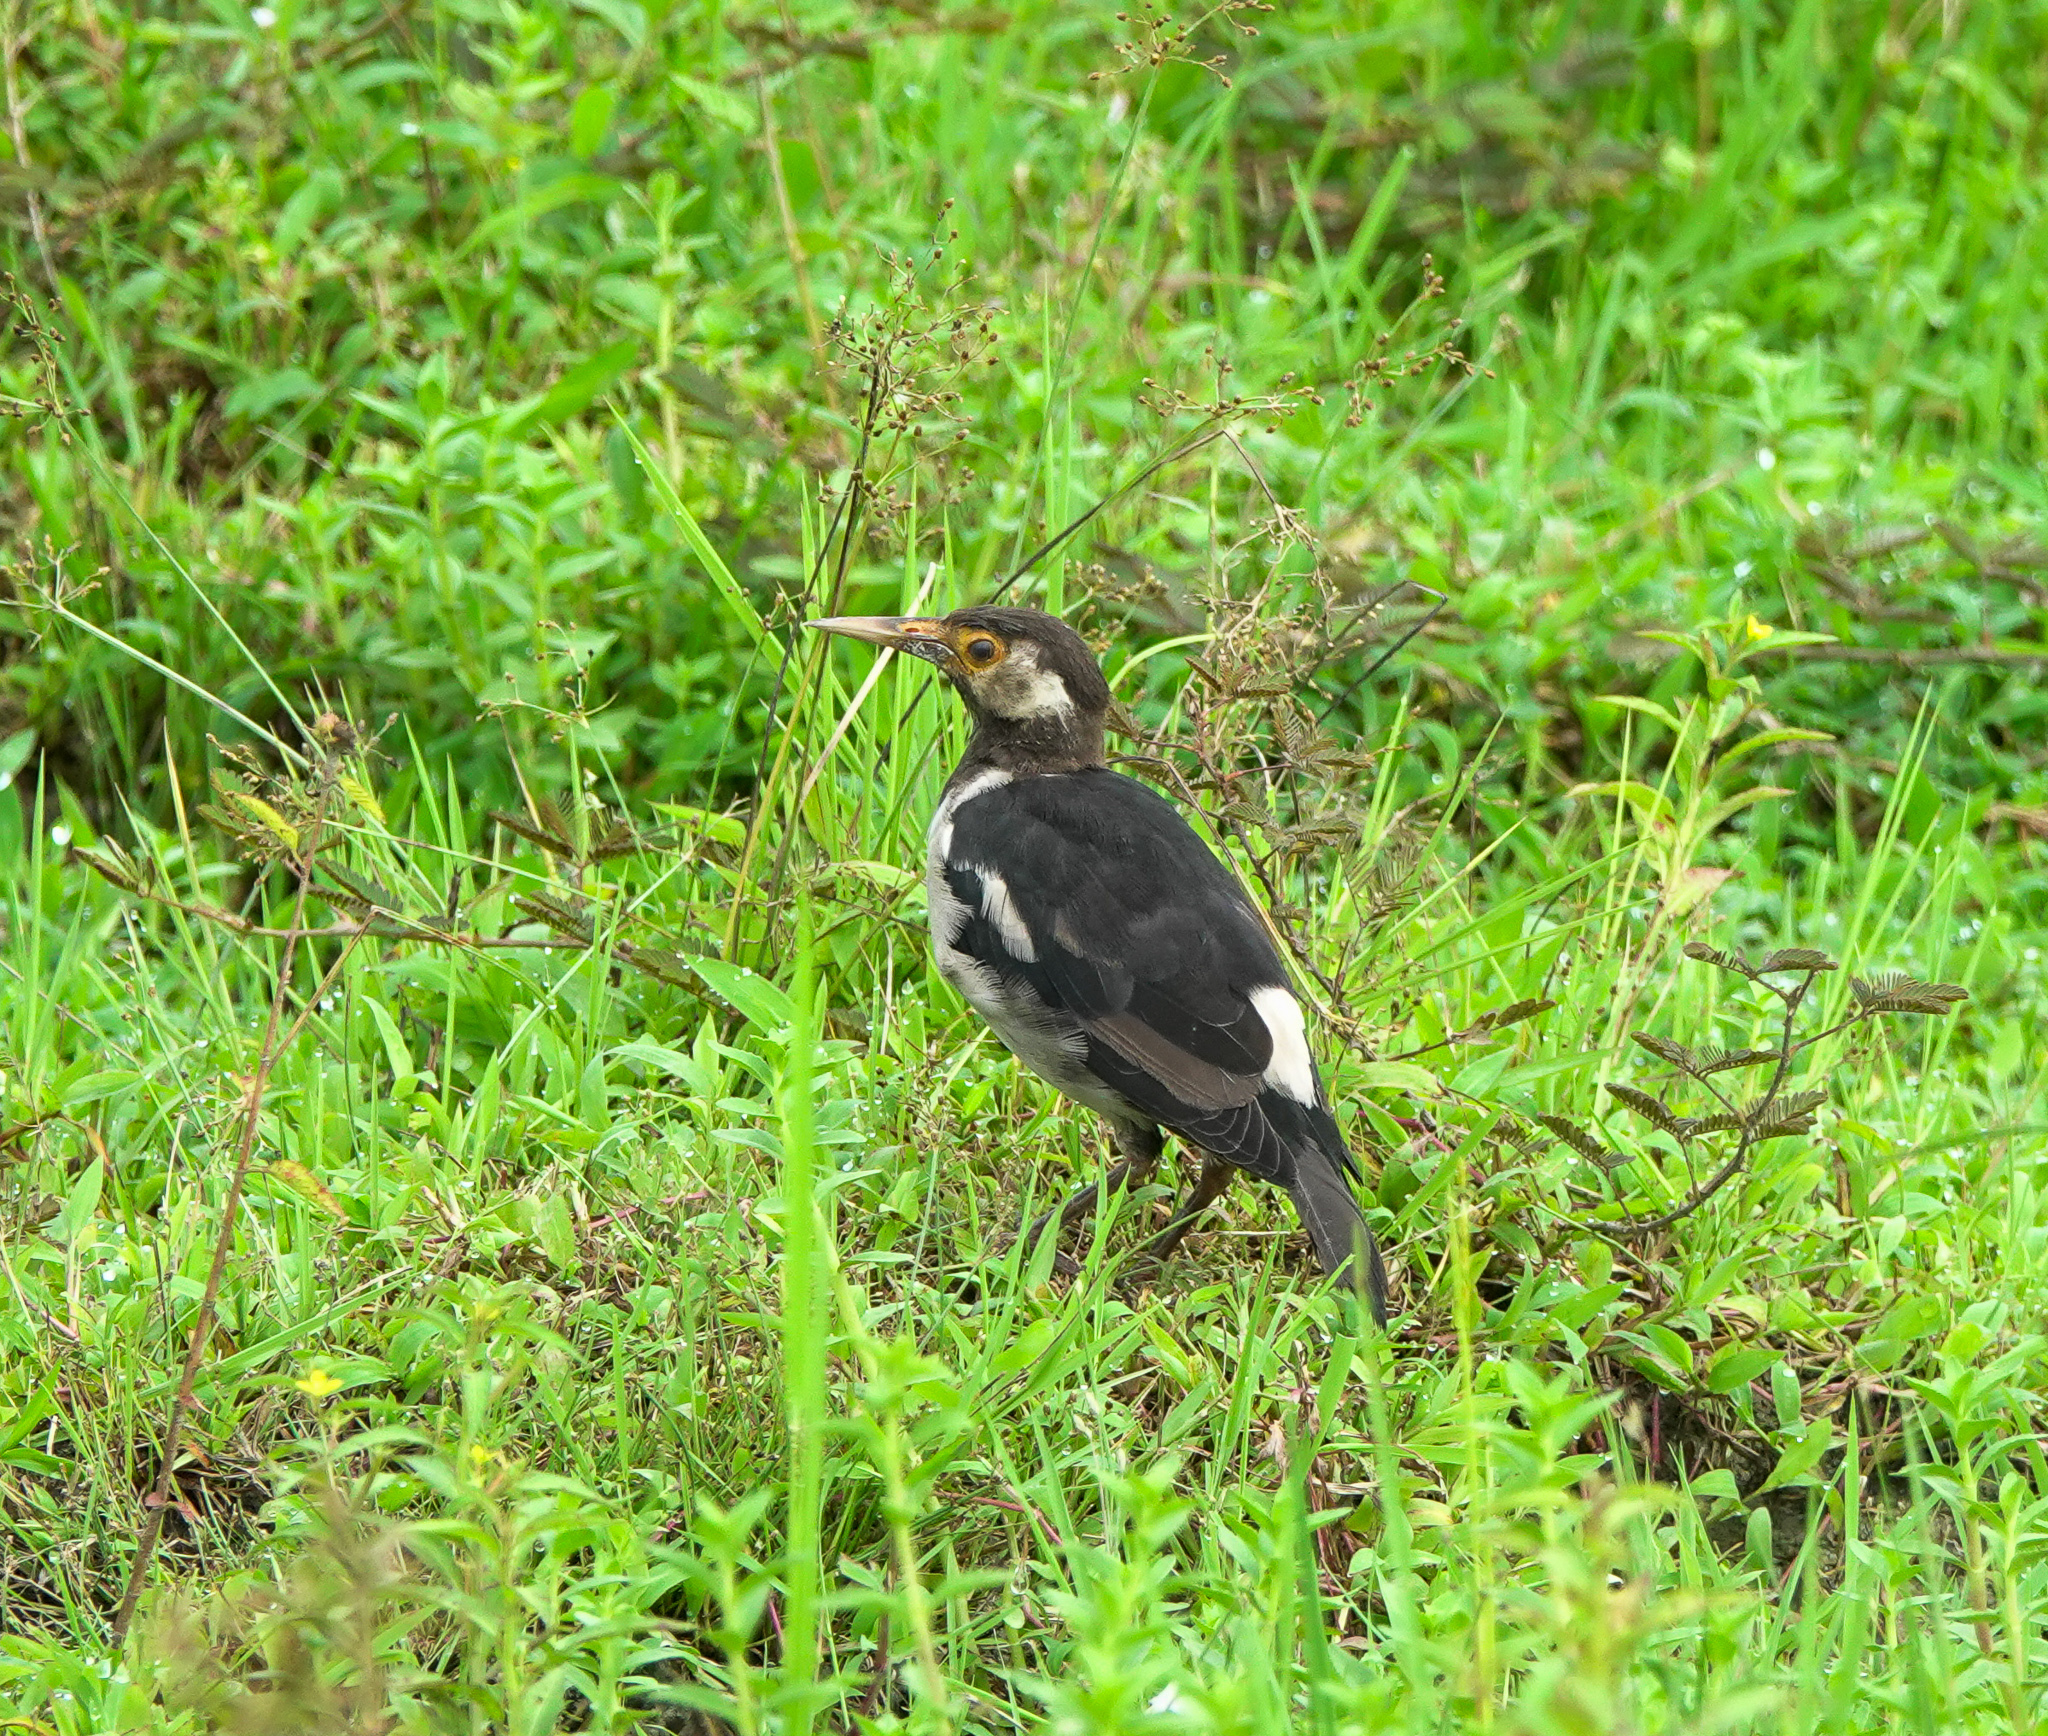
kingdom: Animalia
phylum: Chordata
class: Aves
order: Passeriformes
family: Sturnidae
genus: Gracupica
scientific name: Gracupica contra
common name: Pied myna
